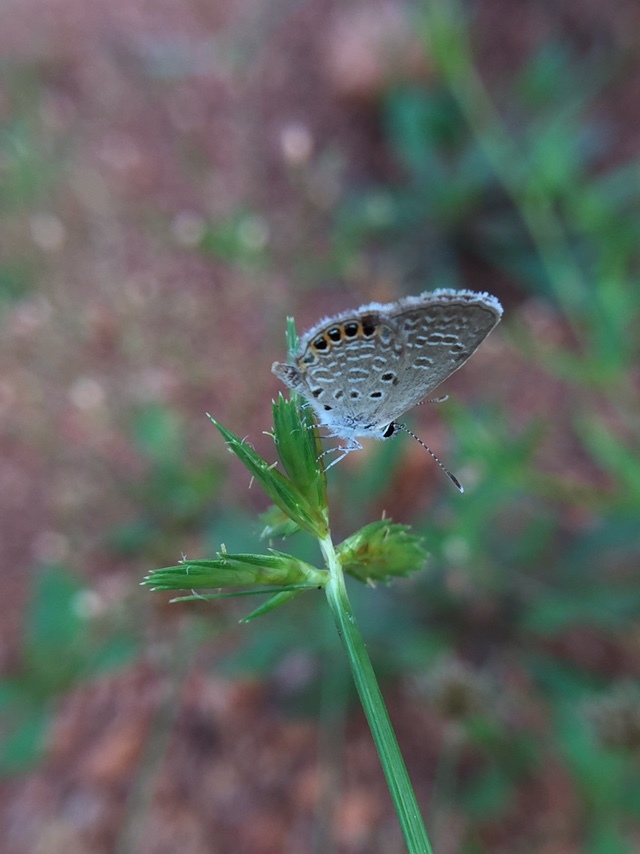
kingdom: Animalia
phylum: Arthropoda
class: Insecta
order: Lepidoptera
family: Lycaenidae
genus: Freyeria
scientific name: Freyeria putli
